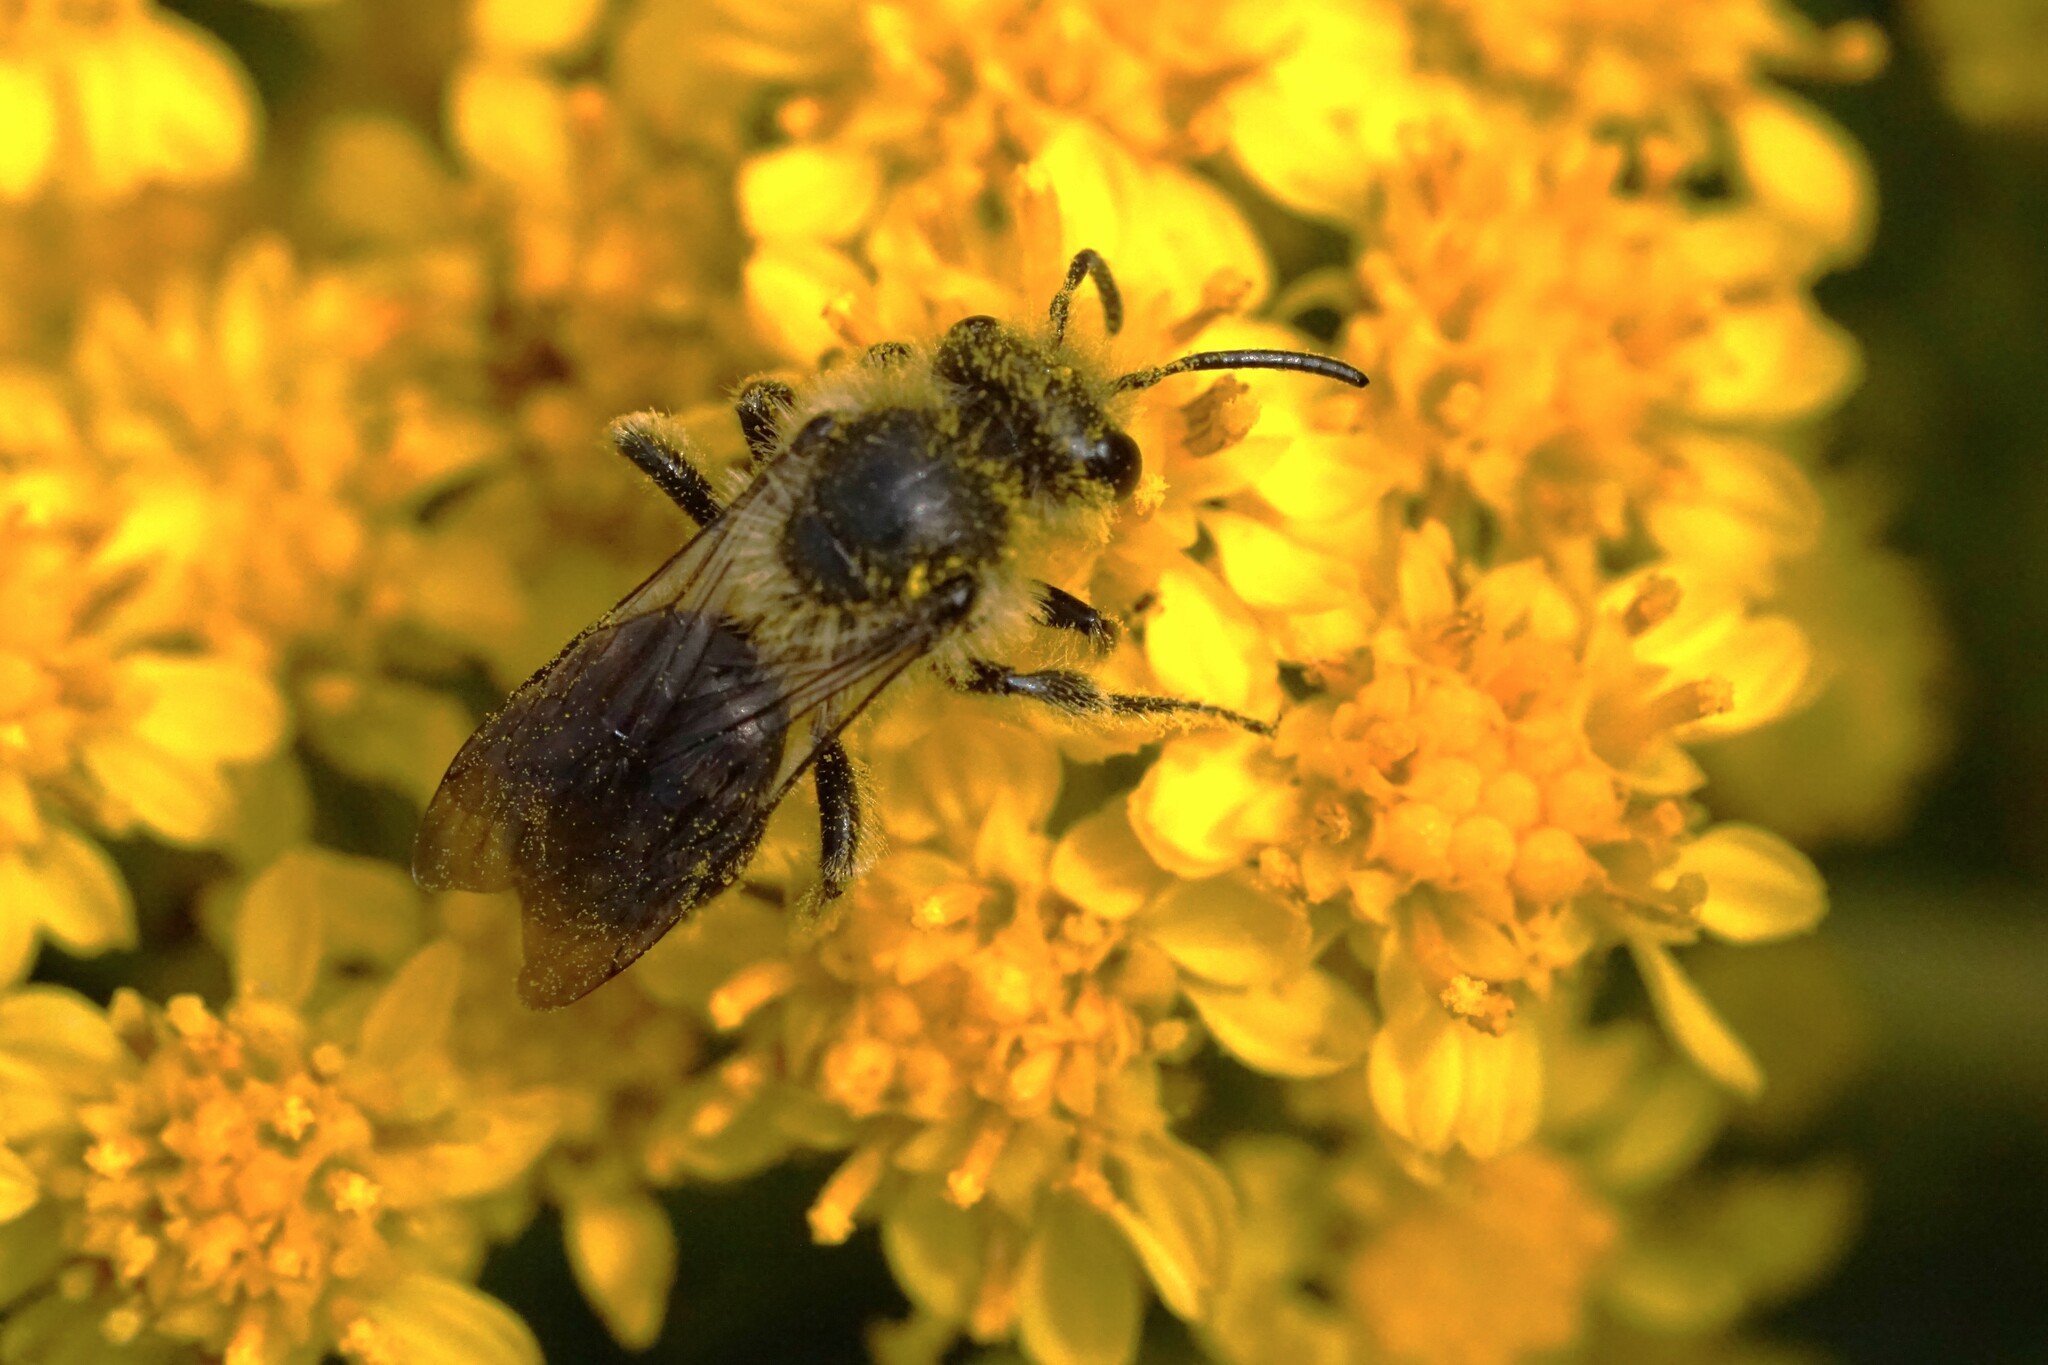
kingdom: Animalia
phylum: Arthropoda
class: Insecta
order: Hymenoptera
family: Andrenidae
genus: Andrena
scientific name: Andrena asteris
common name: Aster mining bee
